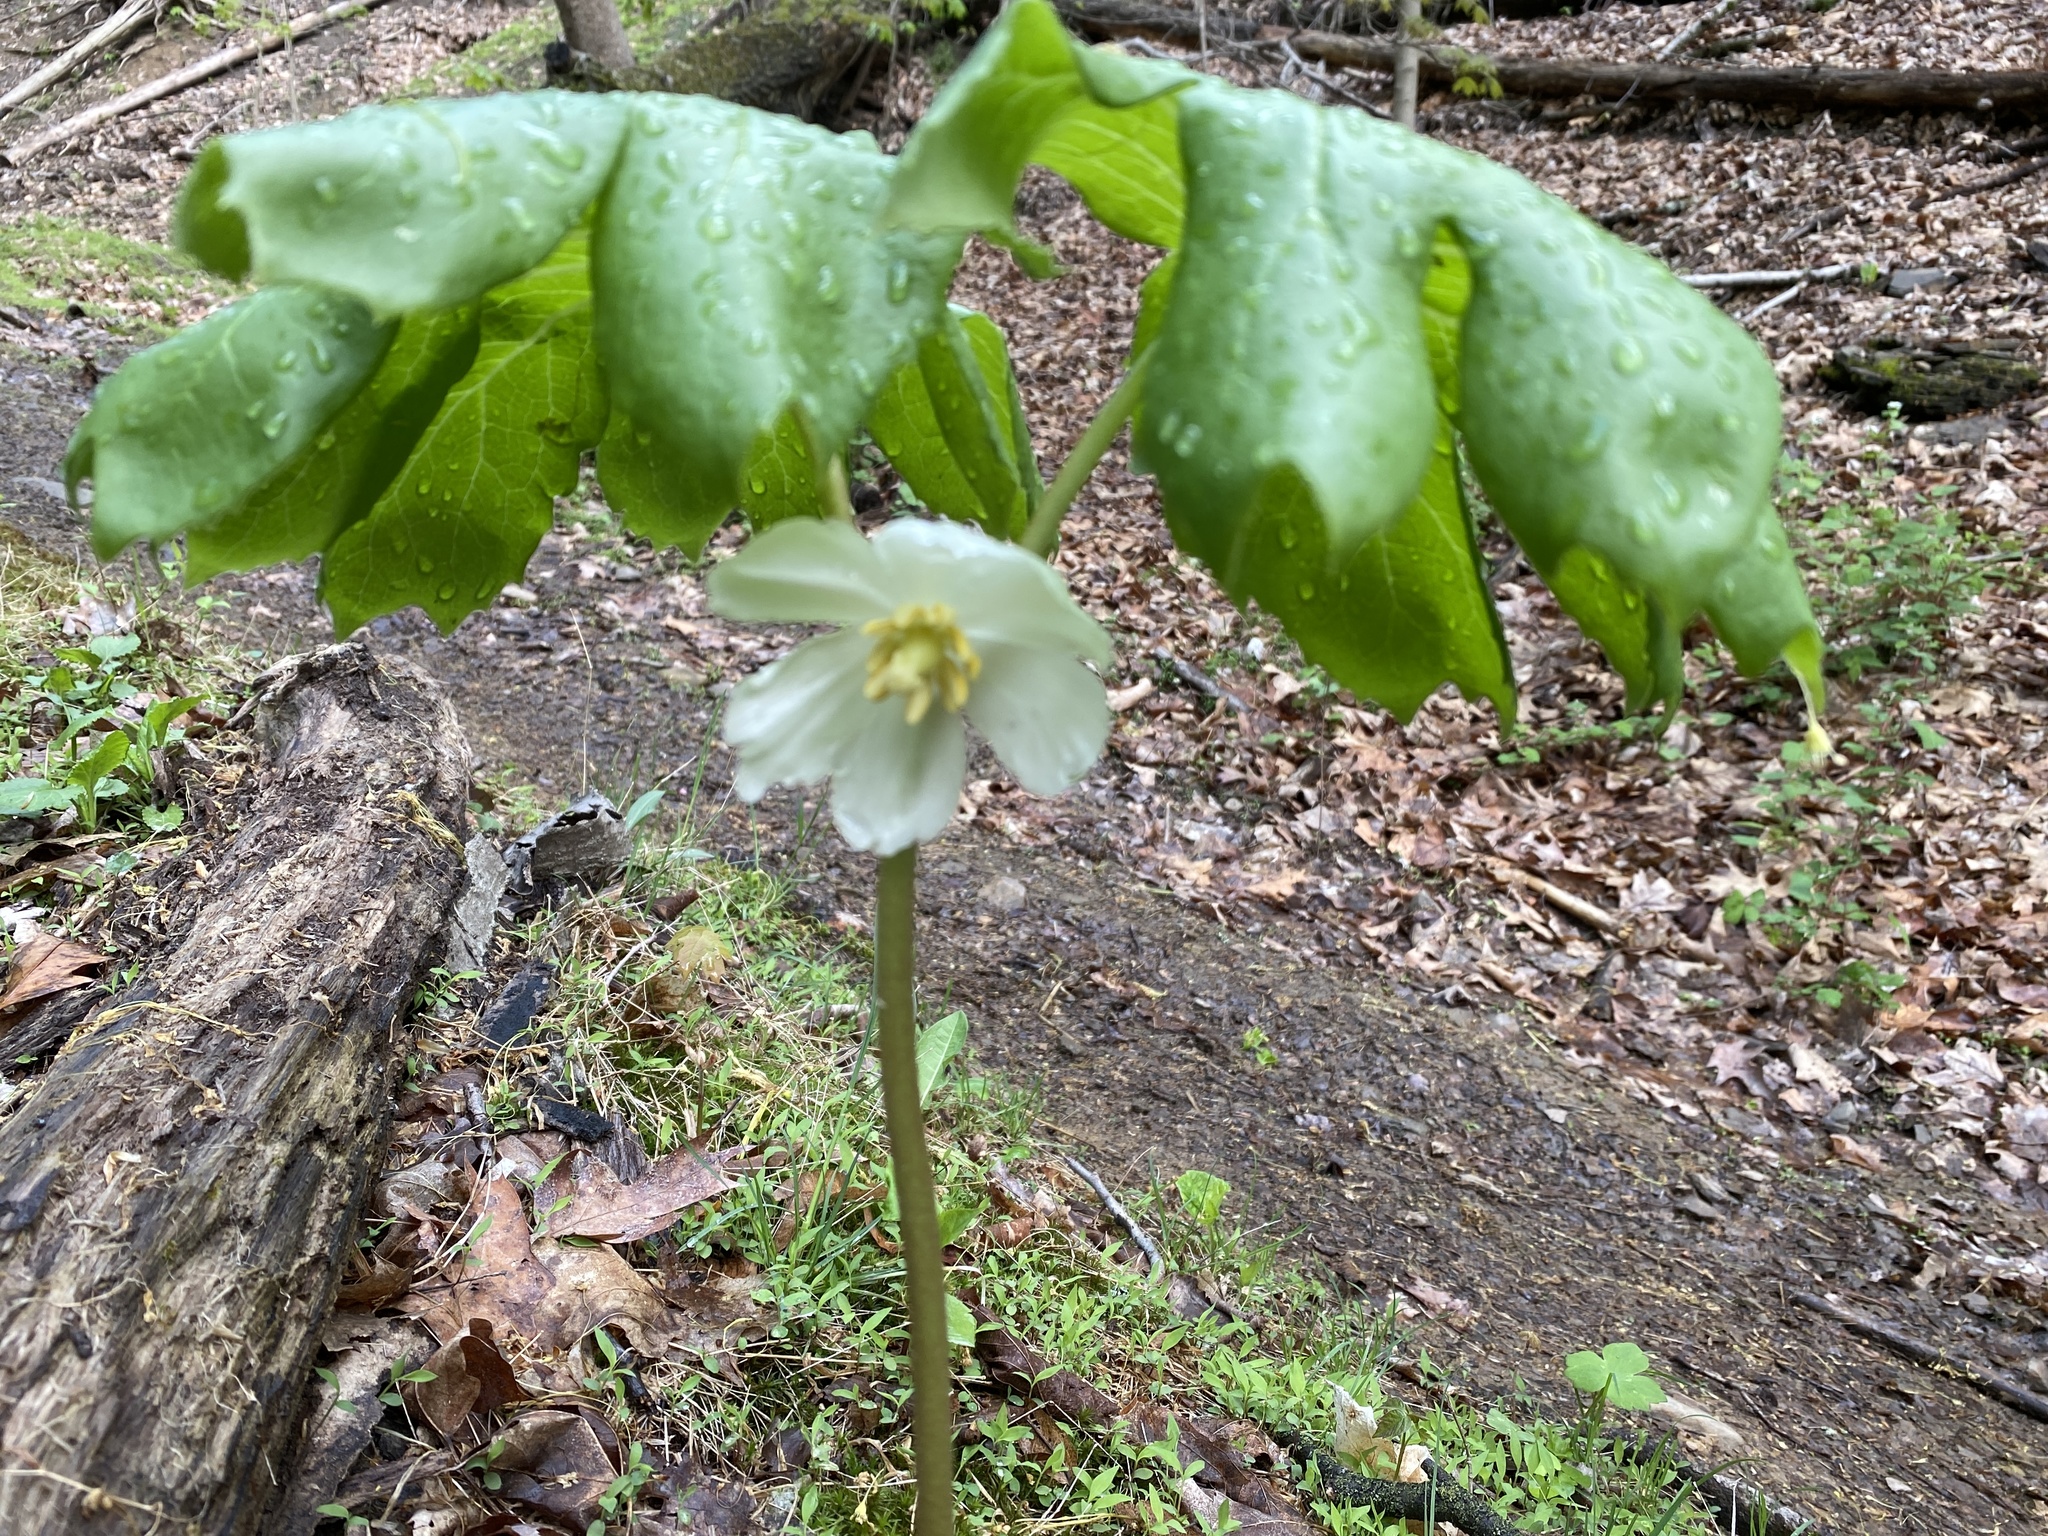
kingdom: Plantae
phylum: Tracheophyta
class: Magnoliopsida
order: Ranunculales
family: Berberidaceae
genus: Podophyllum
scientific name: Podophyllum peltatum
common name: Wild mandrake
